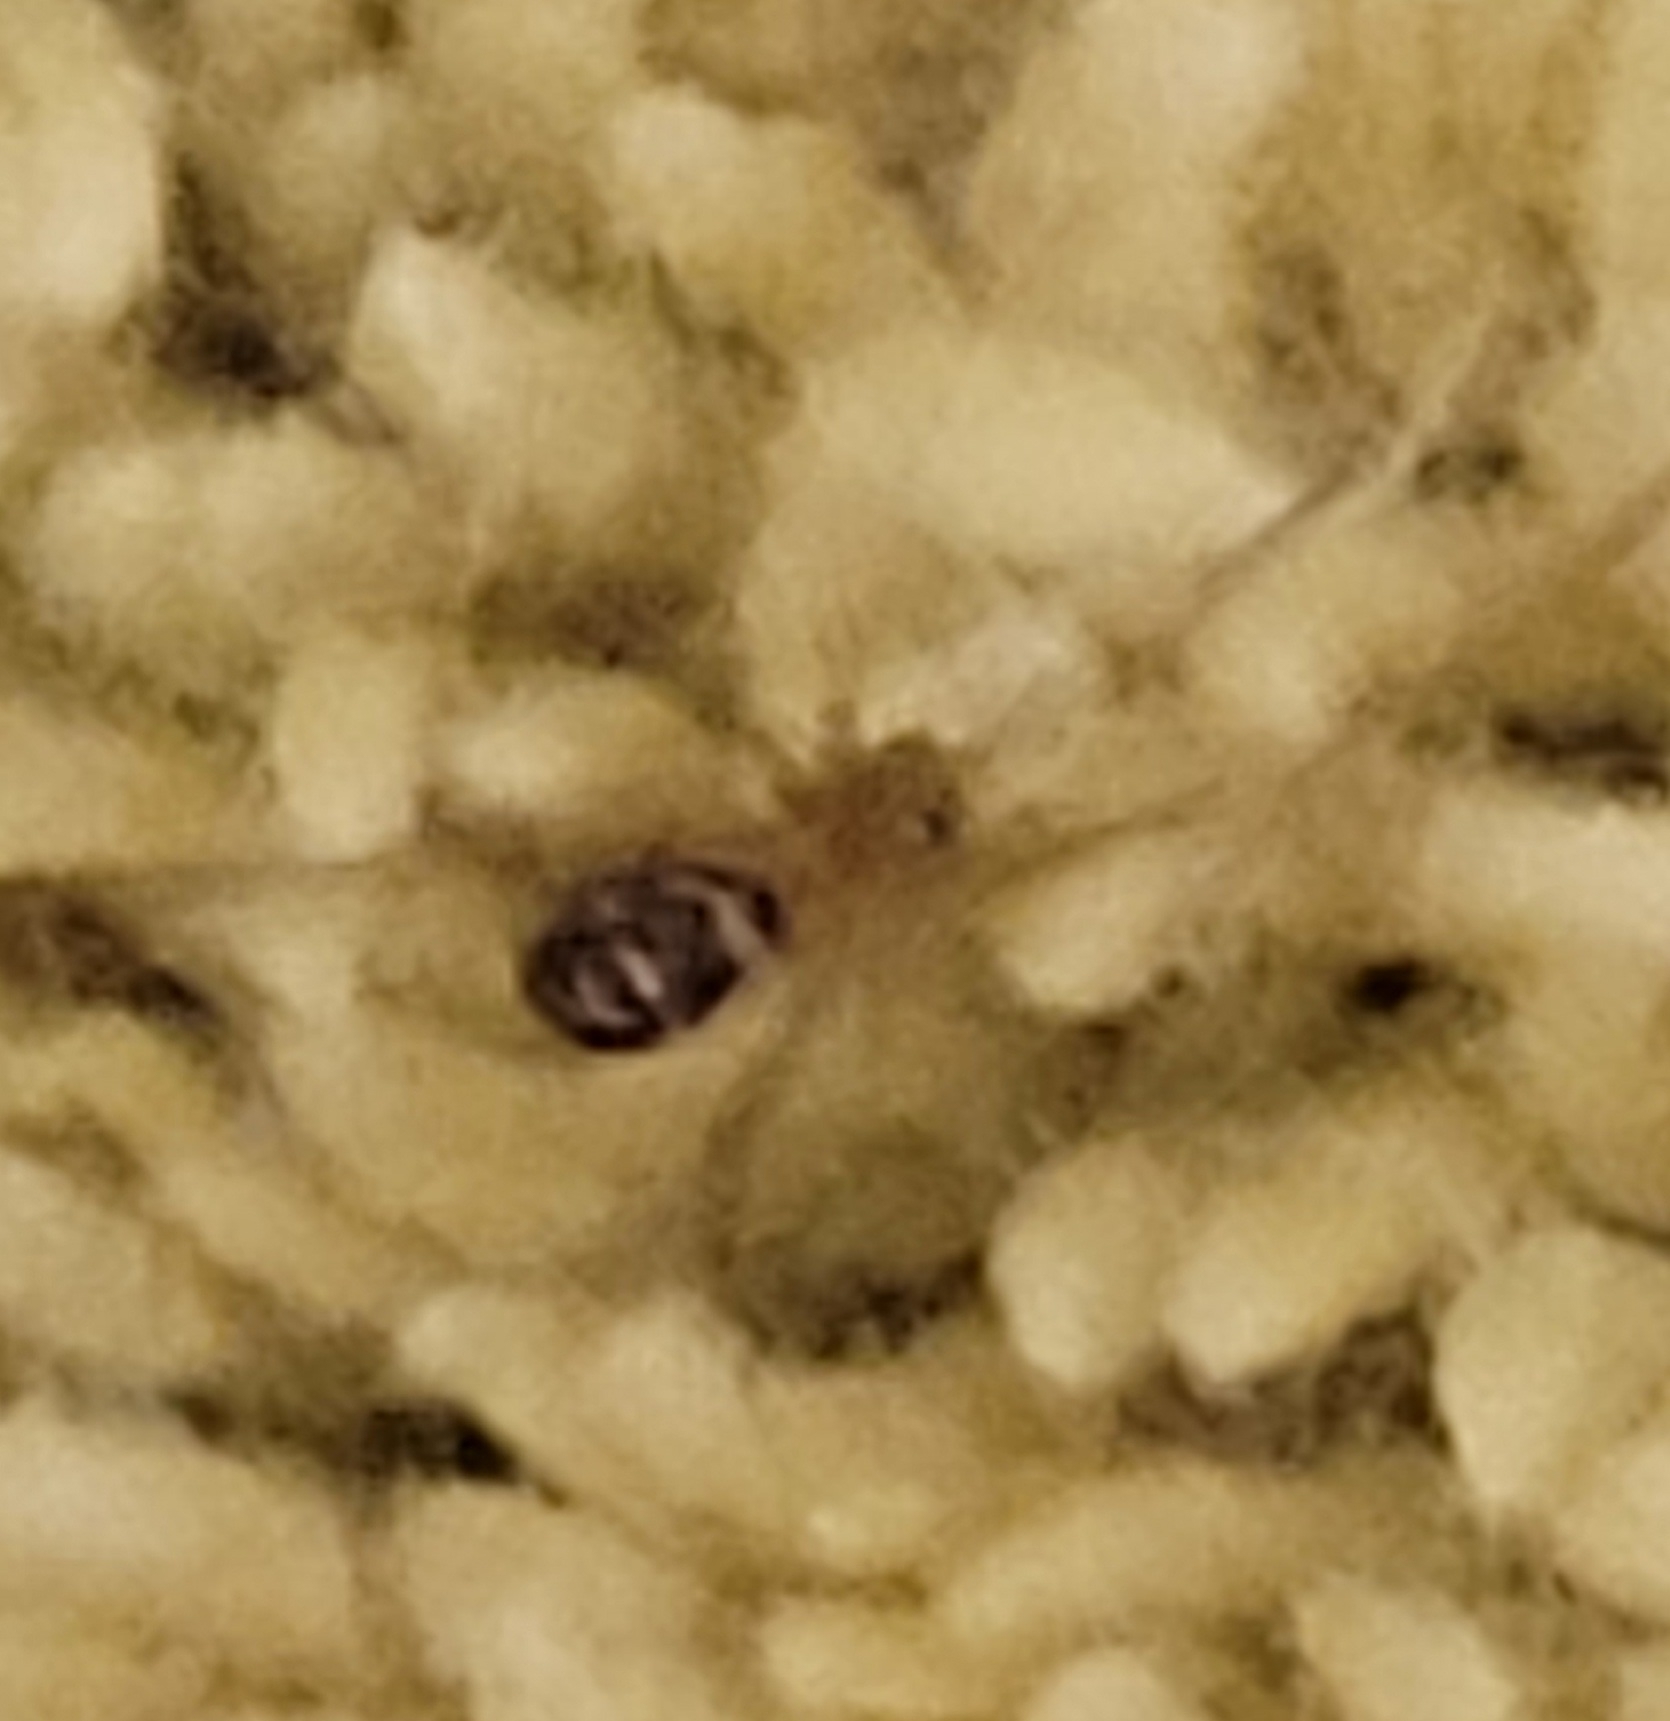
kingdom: Animalia
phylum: Arthropoda
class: Arachnida
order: Araneae
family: Theridiidae
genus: Steatoda
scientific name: Steatoda grossa
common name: False black widow
